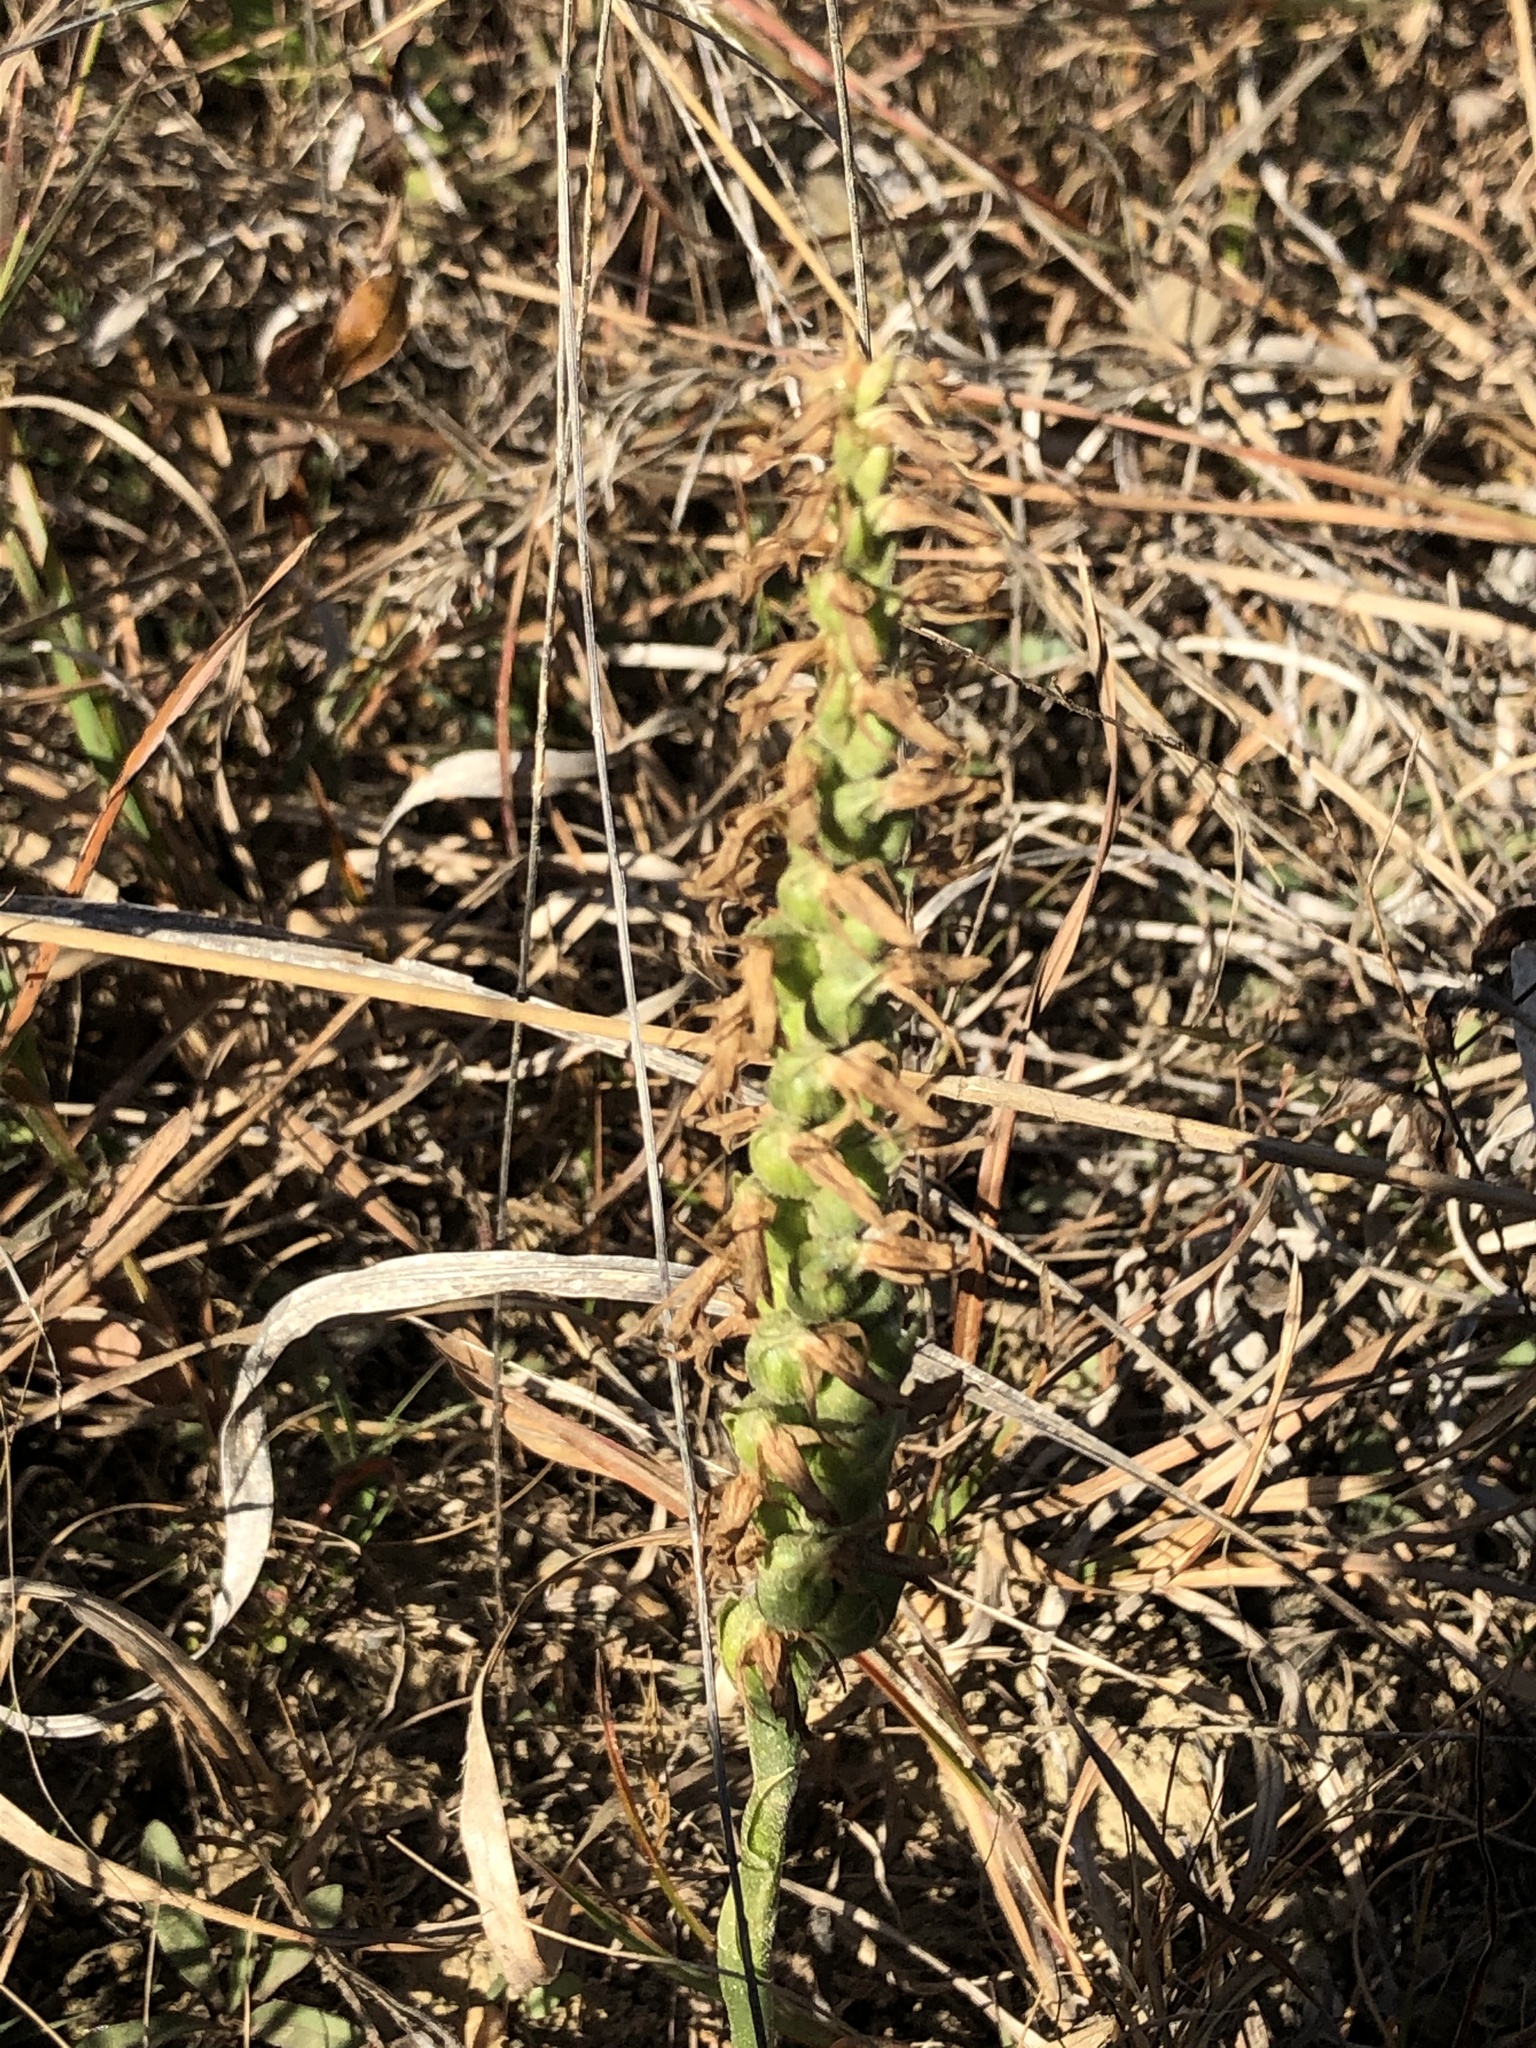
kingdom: Plantae
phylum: Tracheophyta
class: Liliopsida
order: Asparagales
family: Orchidaceae
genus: Spiranthes
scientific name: Spiranthes magnicamporum
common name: Great plains ladies'-tresses
